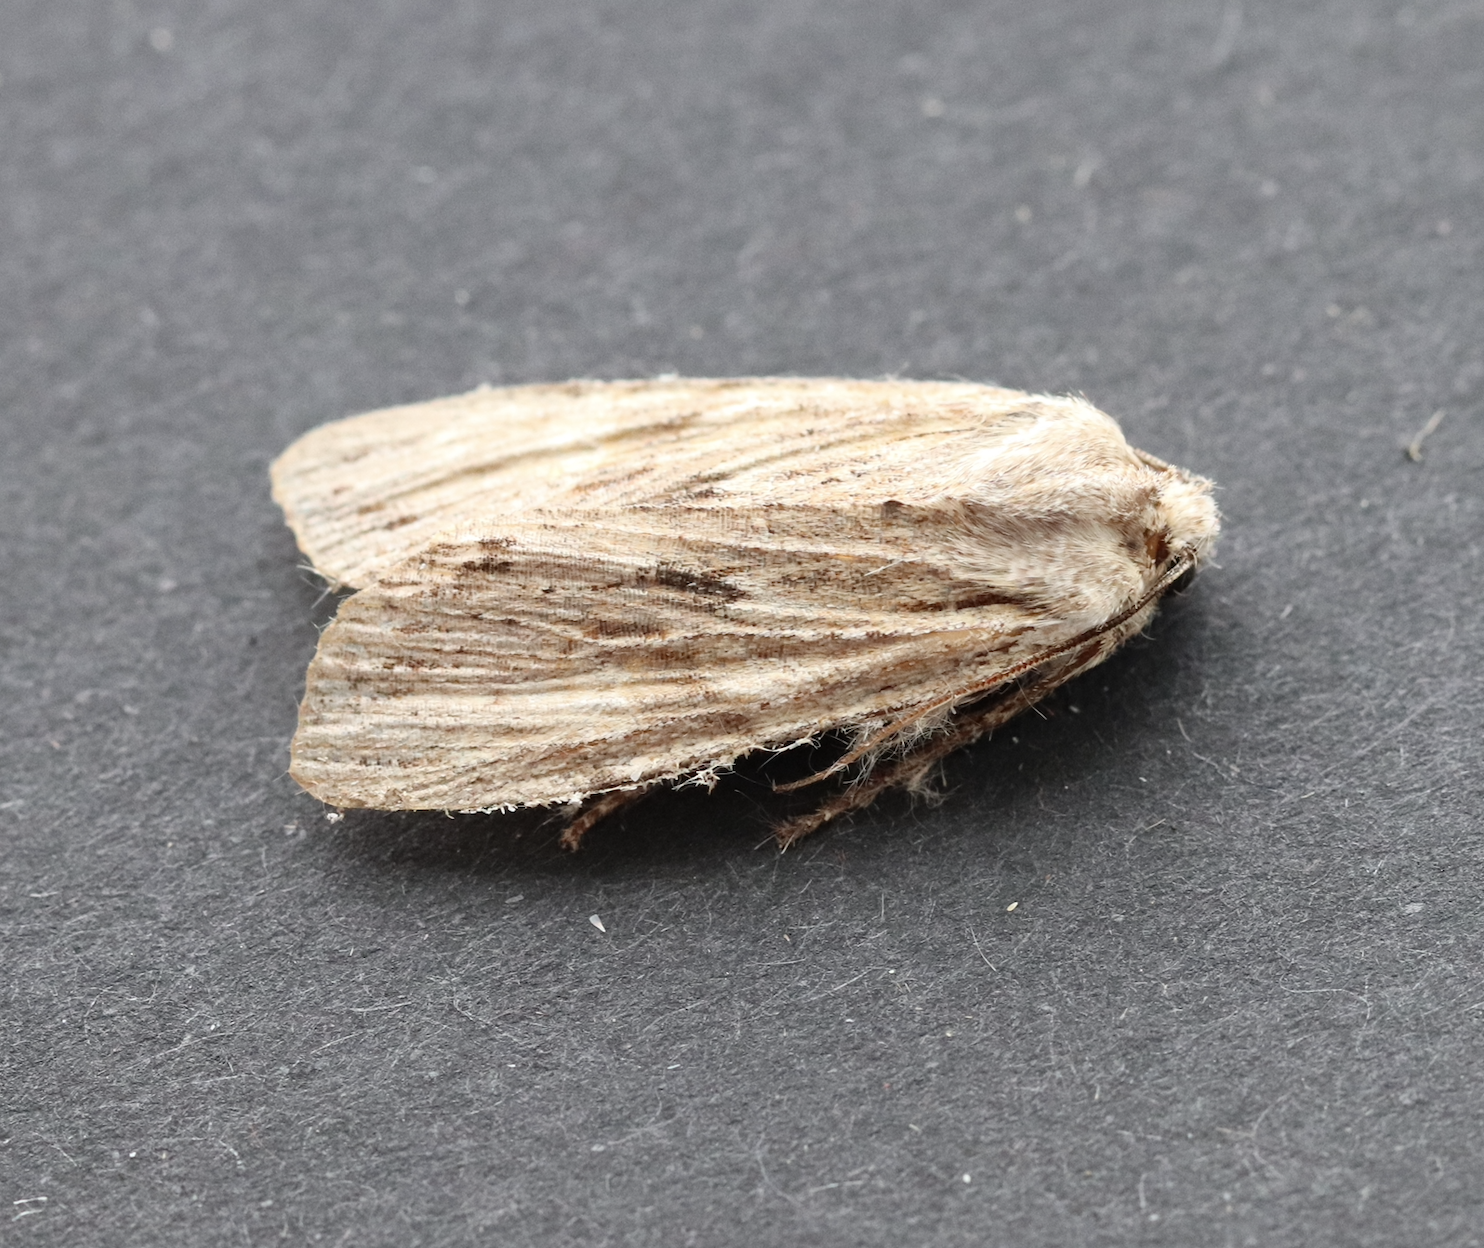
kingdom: Animalia
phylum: Arthropoda
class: Insecta
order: Lepidoptera
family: Noctuidae
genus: Lithophane
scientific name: Lithophane socia
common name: Pale pinion
